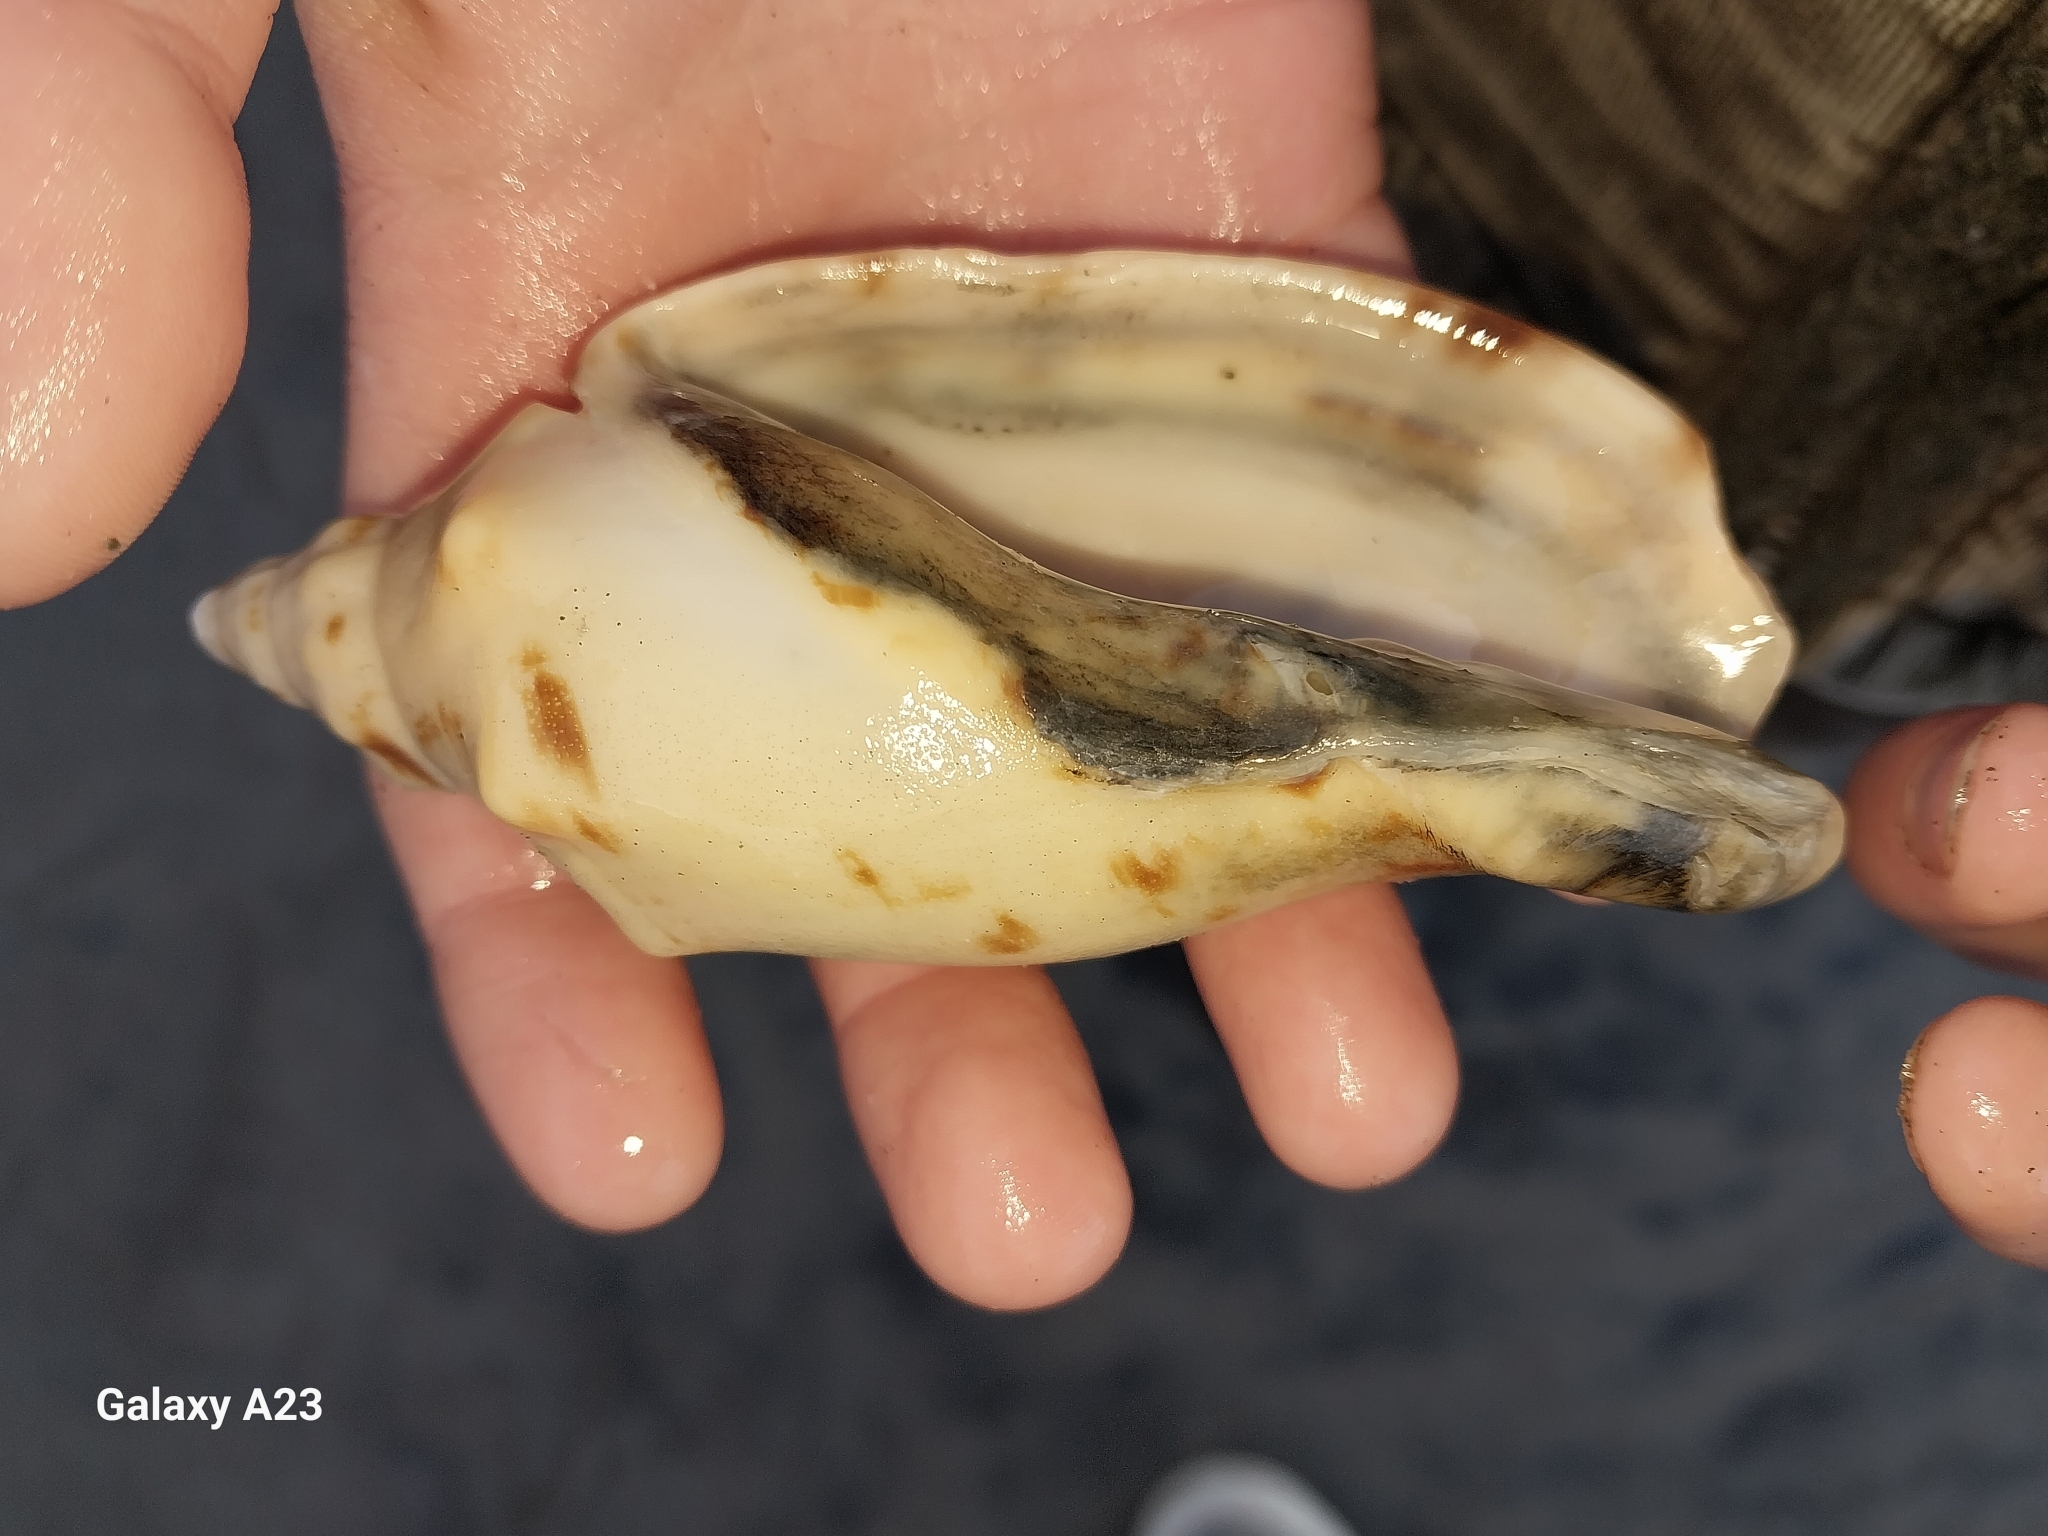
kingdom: Animalia
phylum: Mollusca
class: Gastropoda
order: Neogastropoda
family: Volutidae
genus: Alcithoe
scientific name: Alcithoe arabica
